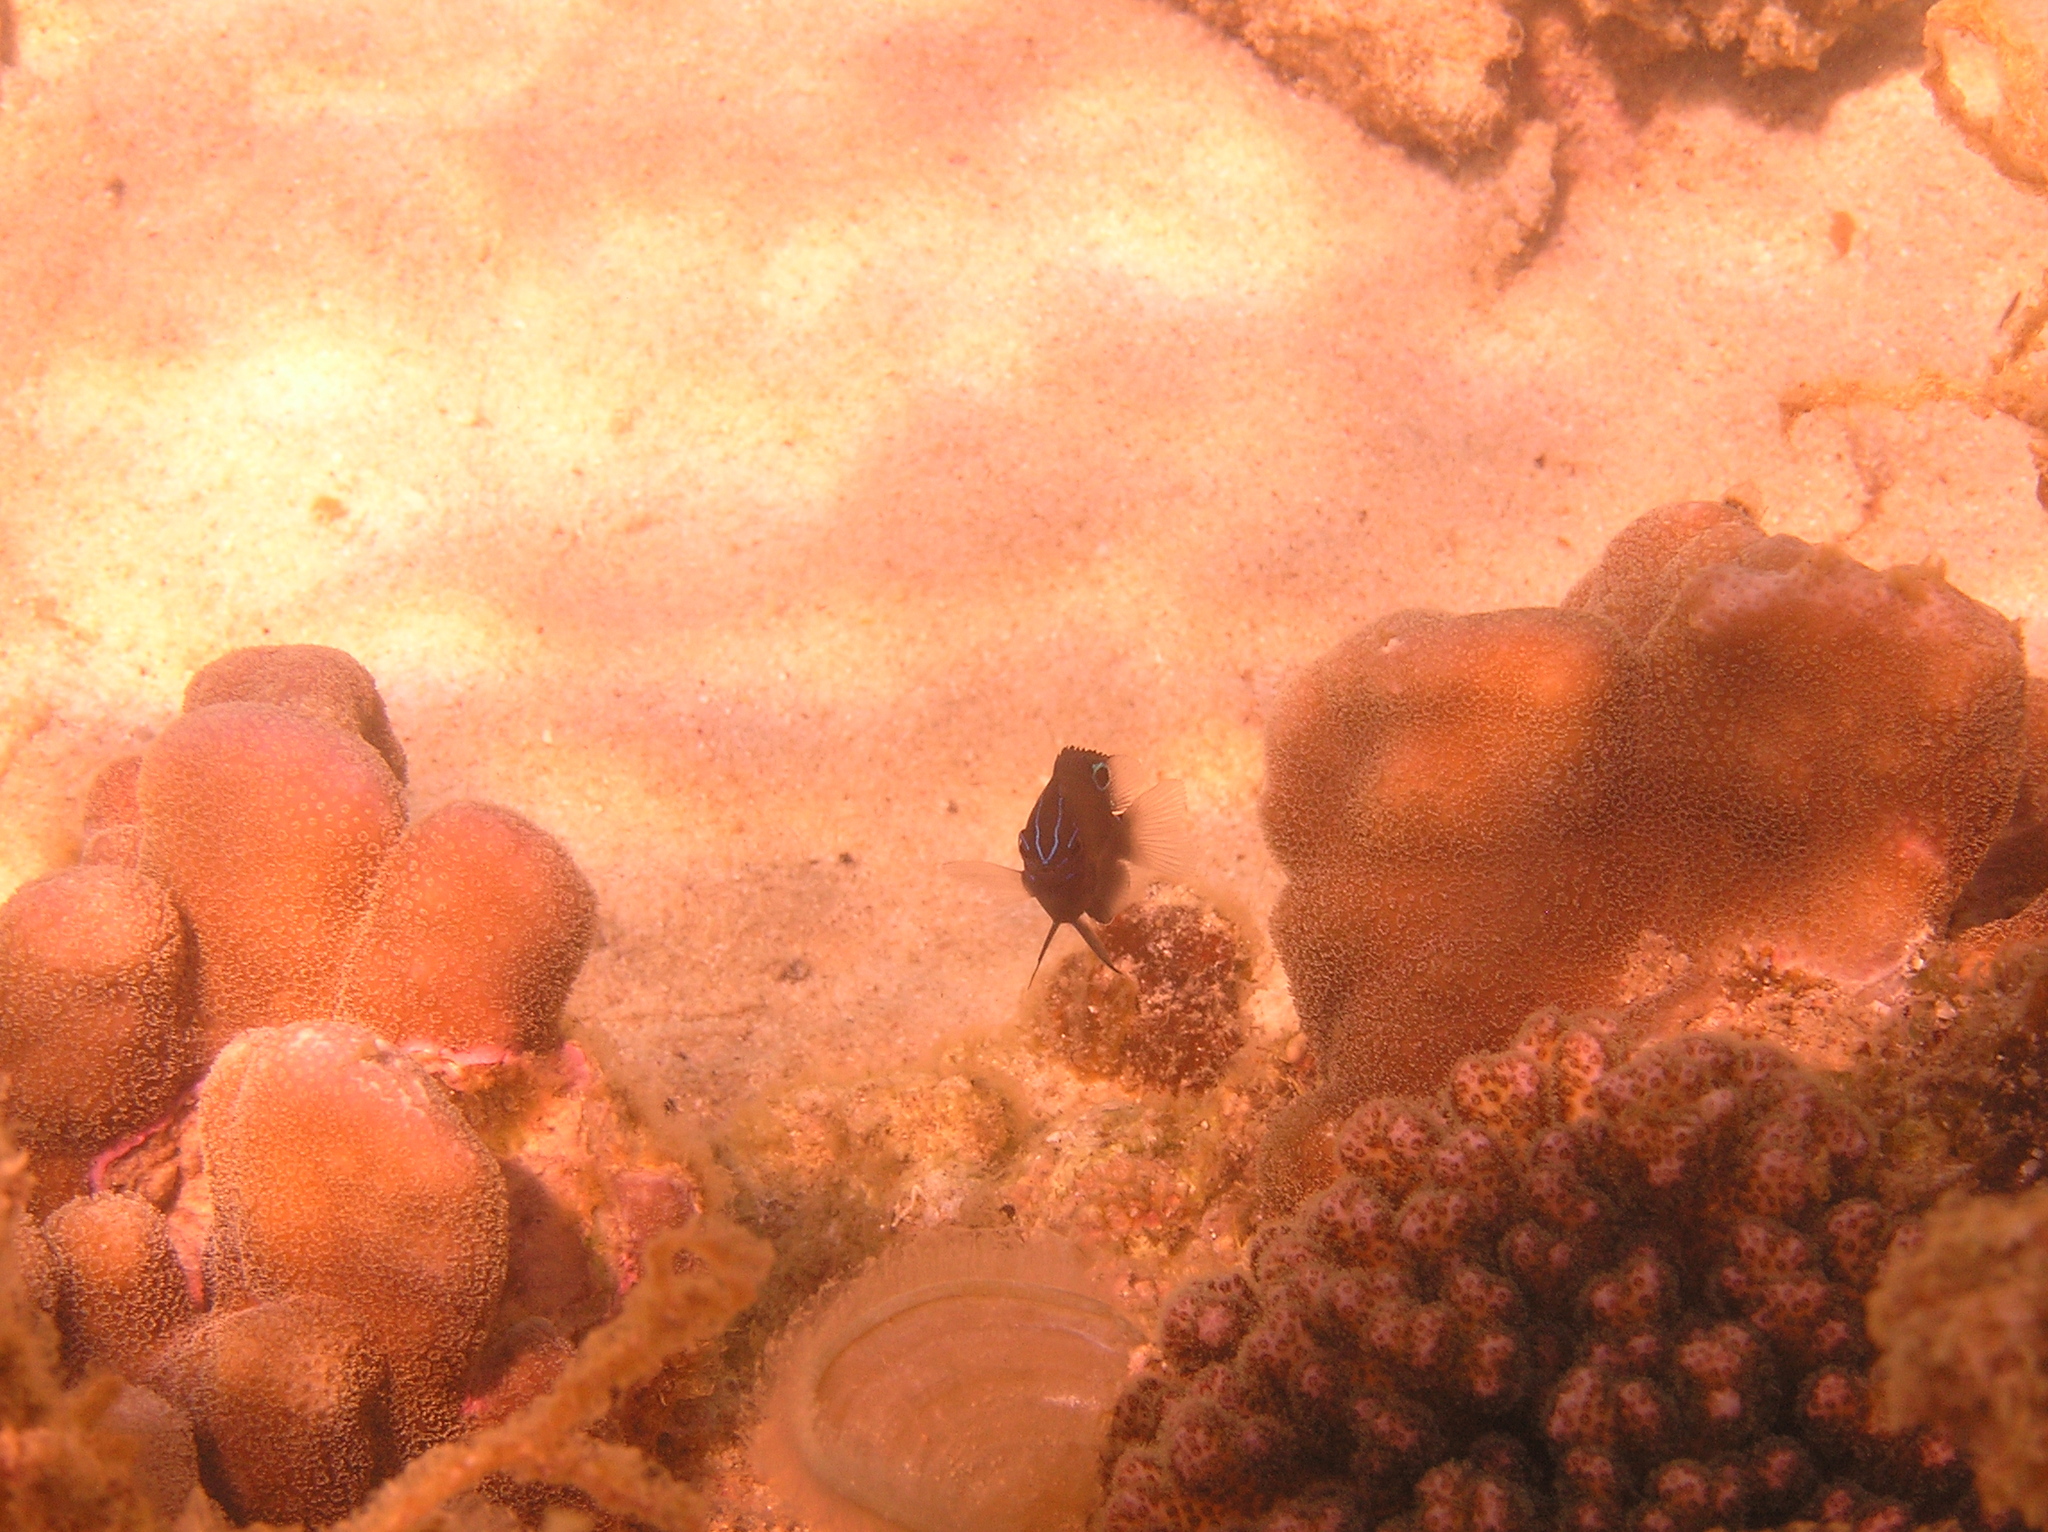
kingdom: Animalia
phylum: Chordata
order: Perciformes
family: Pomacentridae
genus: Pomacentrus
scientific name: Pomacentrus tripunctatus
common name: Threespot damsel
